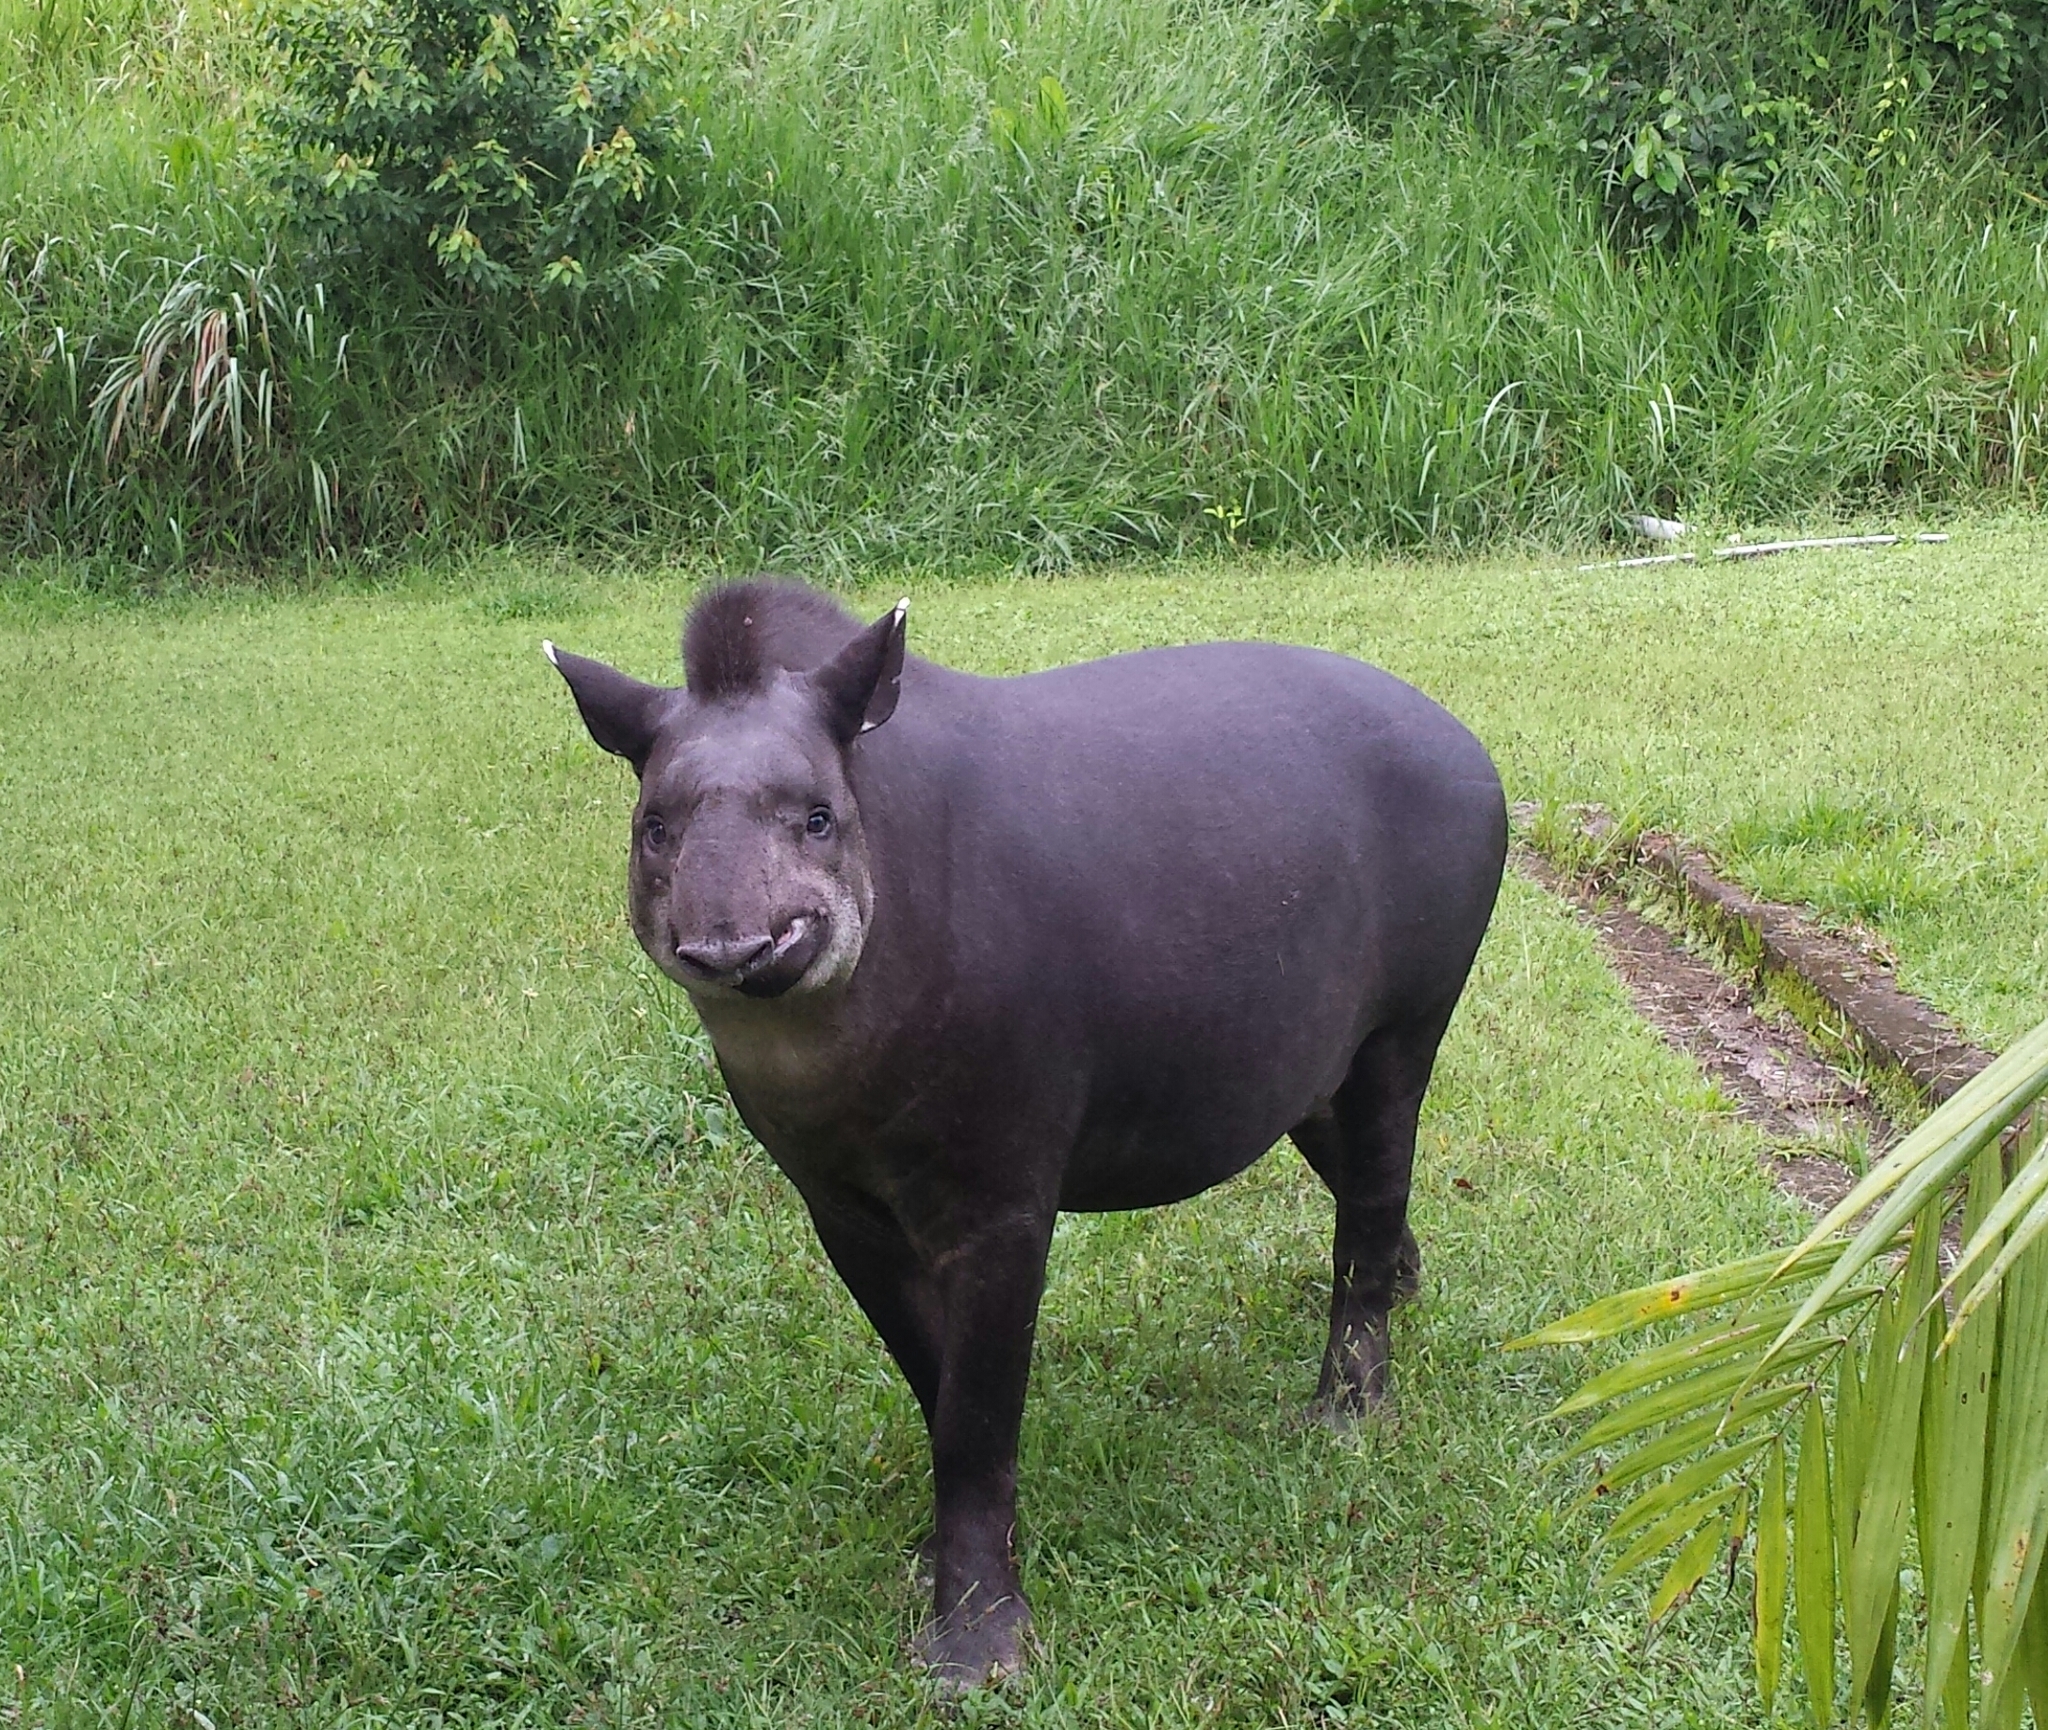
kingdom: Animalia
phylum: Chordata
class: Mammalia
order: Perissodactyla
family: Tapiridae
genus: Tapirus
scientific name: Tapirus terrestris
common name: Brazilian tapir
